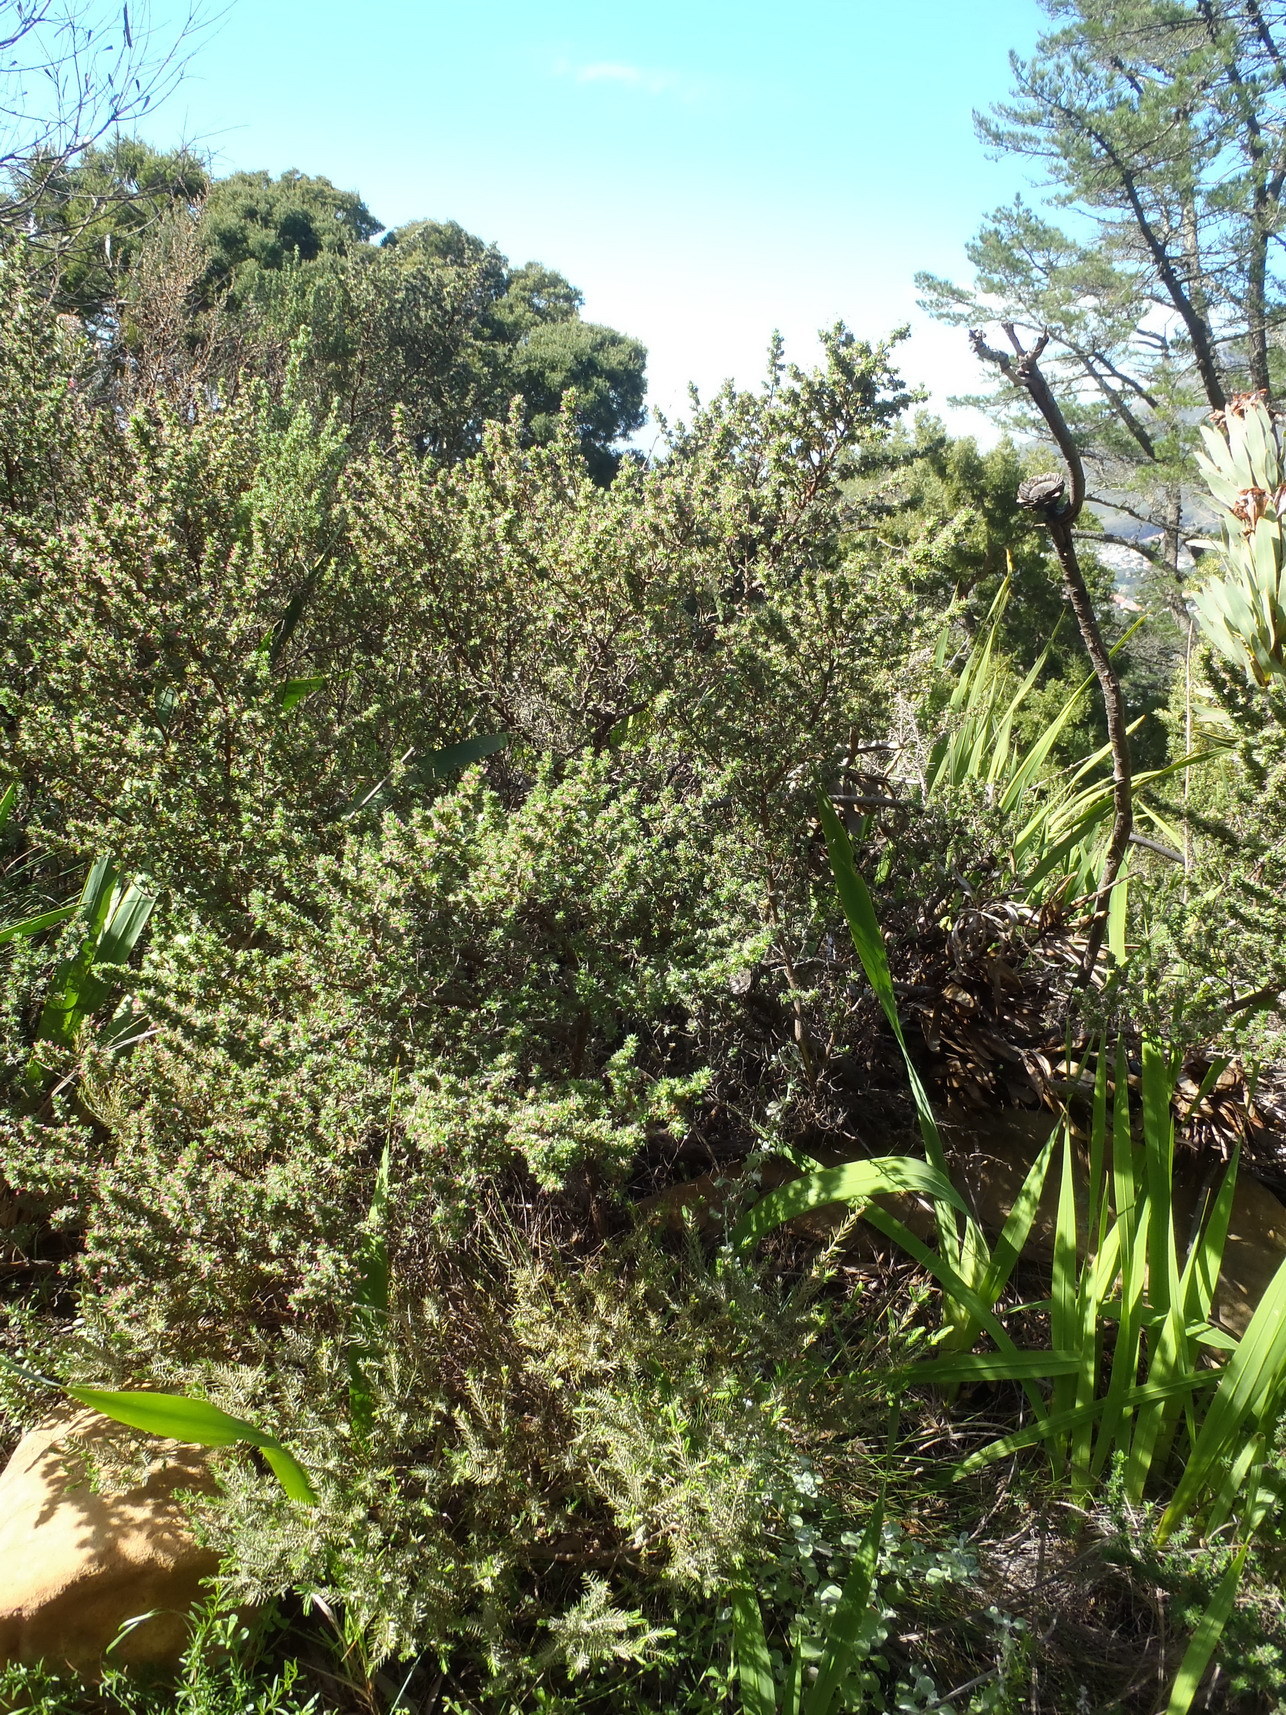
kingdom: Plantae
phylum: Tracheophyta
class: Magnoliopsida
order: Rosales
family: Rosaceae
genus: Cliffortia
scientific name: Cliffortia polygonifolia
